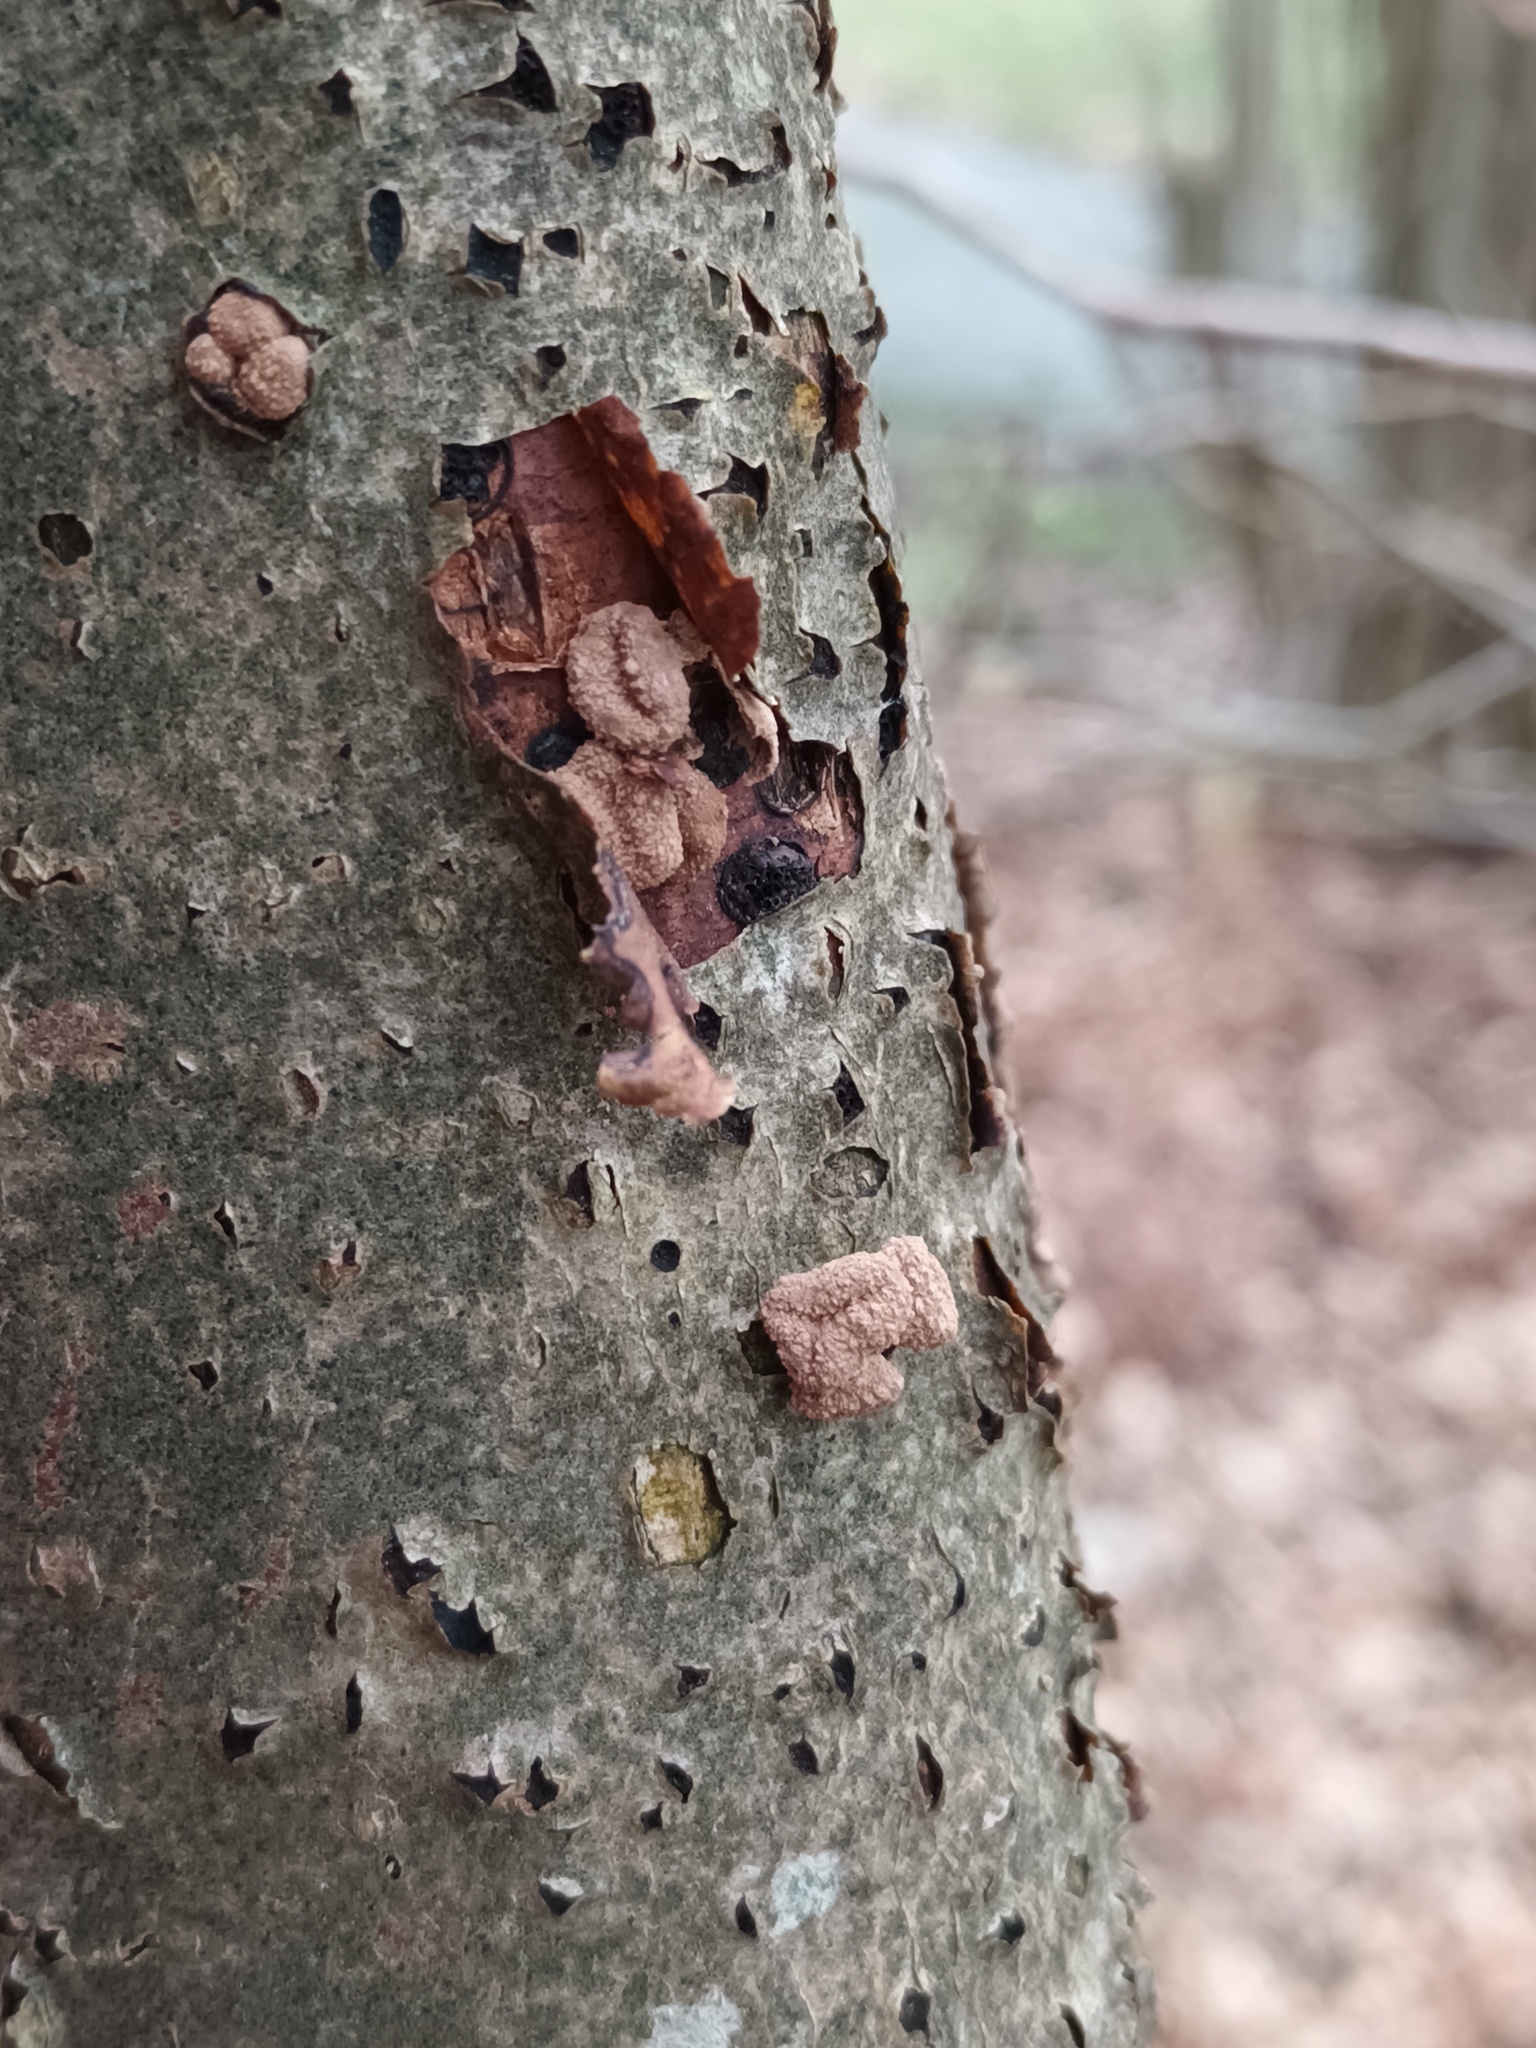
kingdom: Fungi
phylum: Ascomycota
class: Leotiomycetes
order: Helotiales
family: Cenangiaceae
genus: Encoelia
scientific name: Encoelia furfuracea
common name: Spring hazelcup
